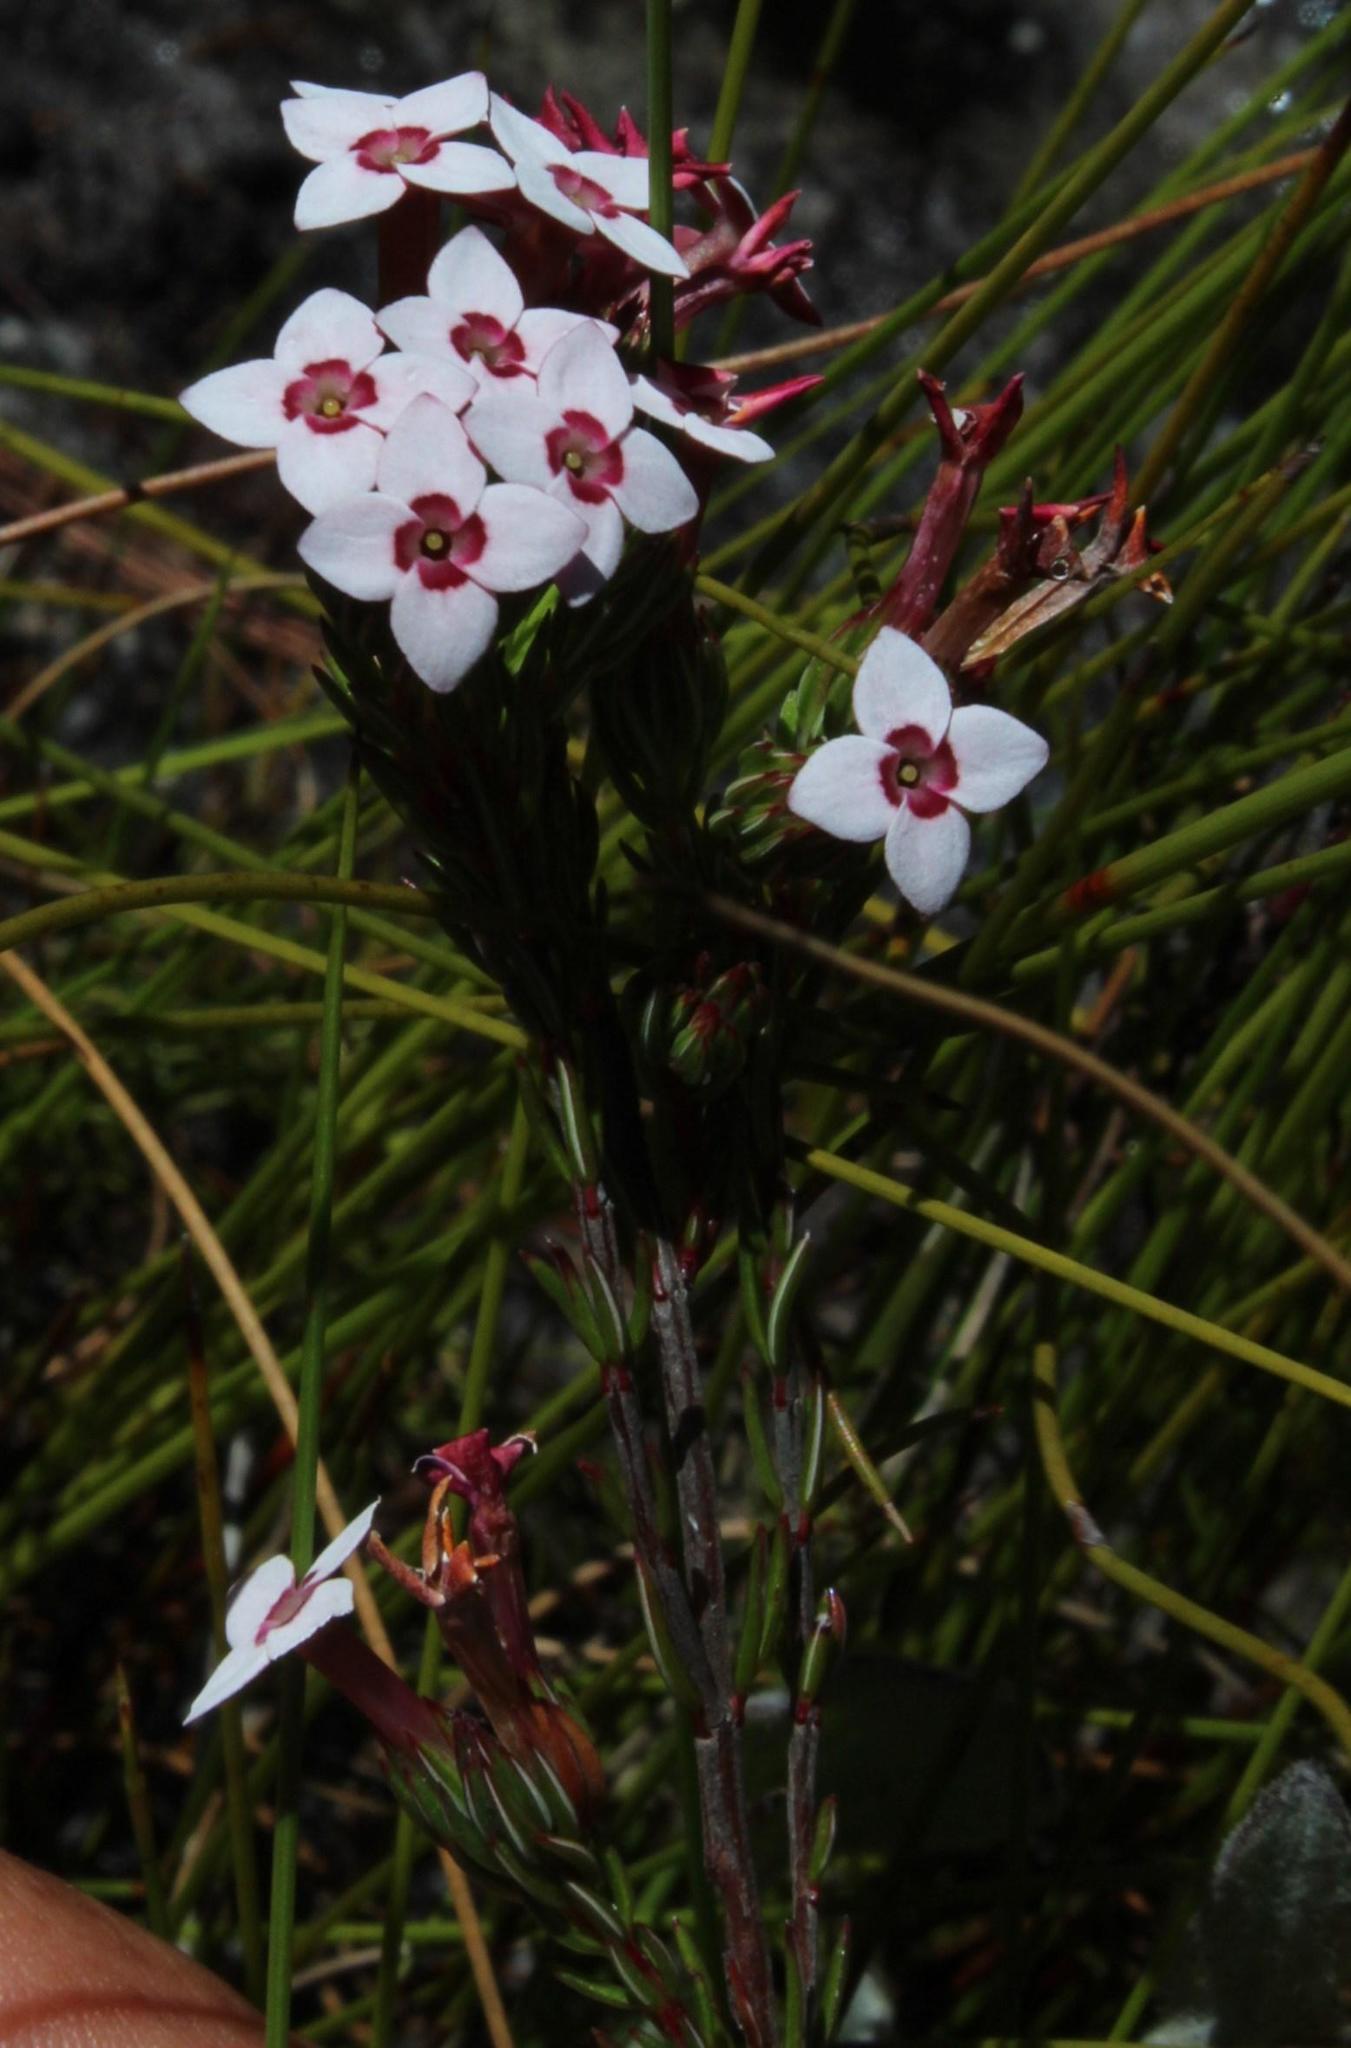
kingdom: Plantae
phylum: Tracheophyta
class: Magnoliopsida
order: Ericales
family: Ericaceae
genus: Erica
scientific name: Erica fastigiata
